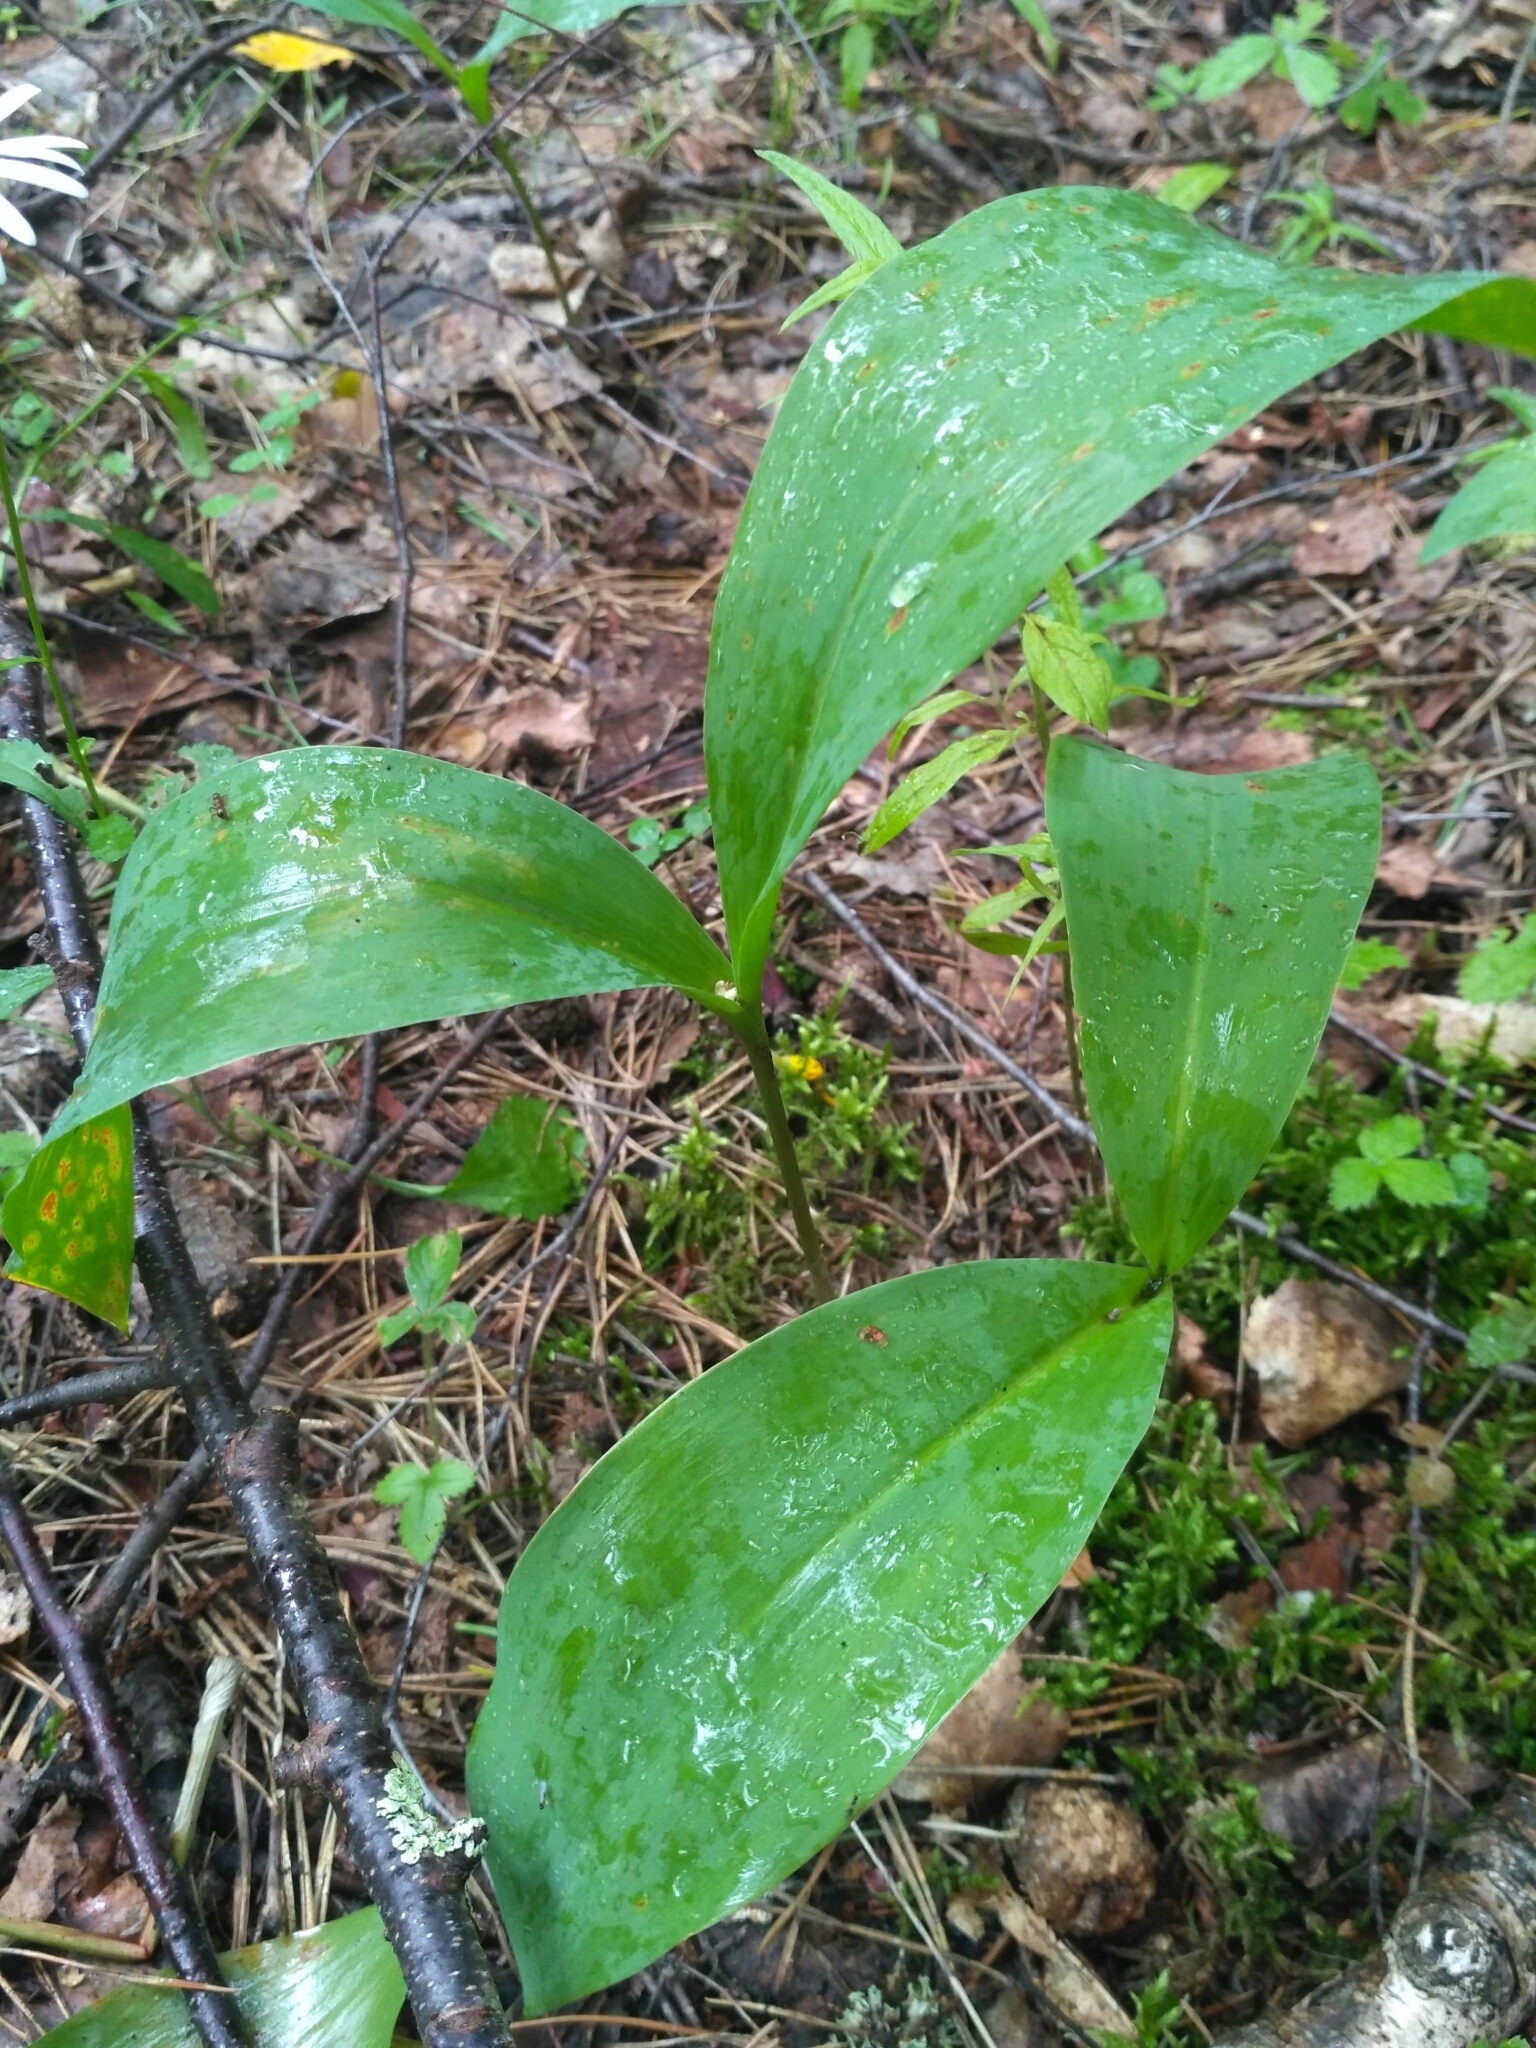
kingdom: Plantae
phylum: Tracheophyta
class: Liliopsida
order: Asparagales
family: Asparagaceae
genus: Convallaria
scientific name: Convallaria majalis
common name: Lily-of-the-valley
